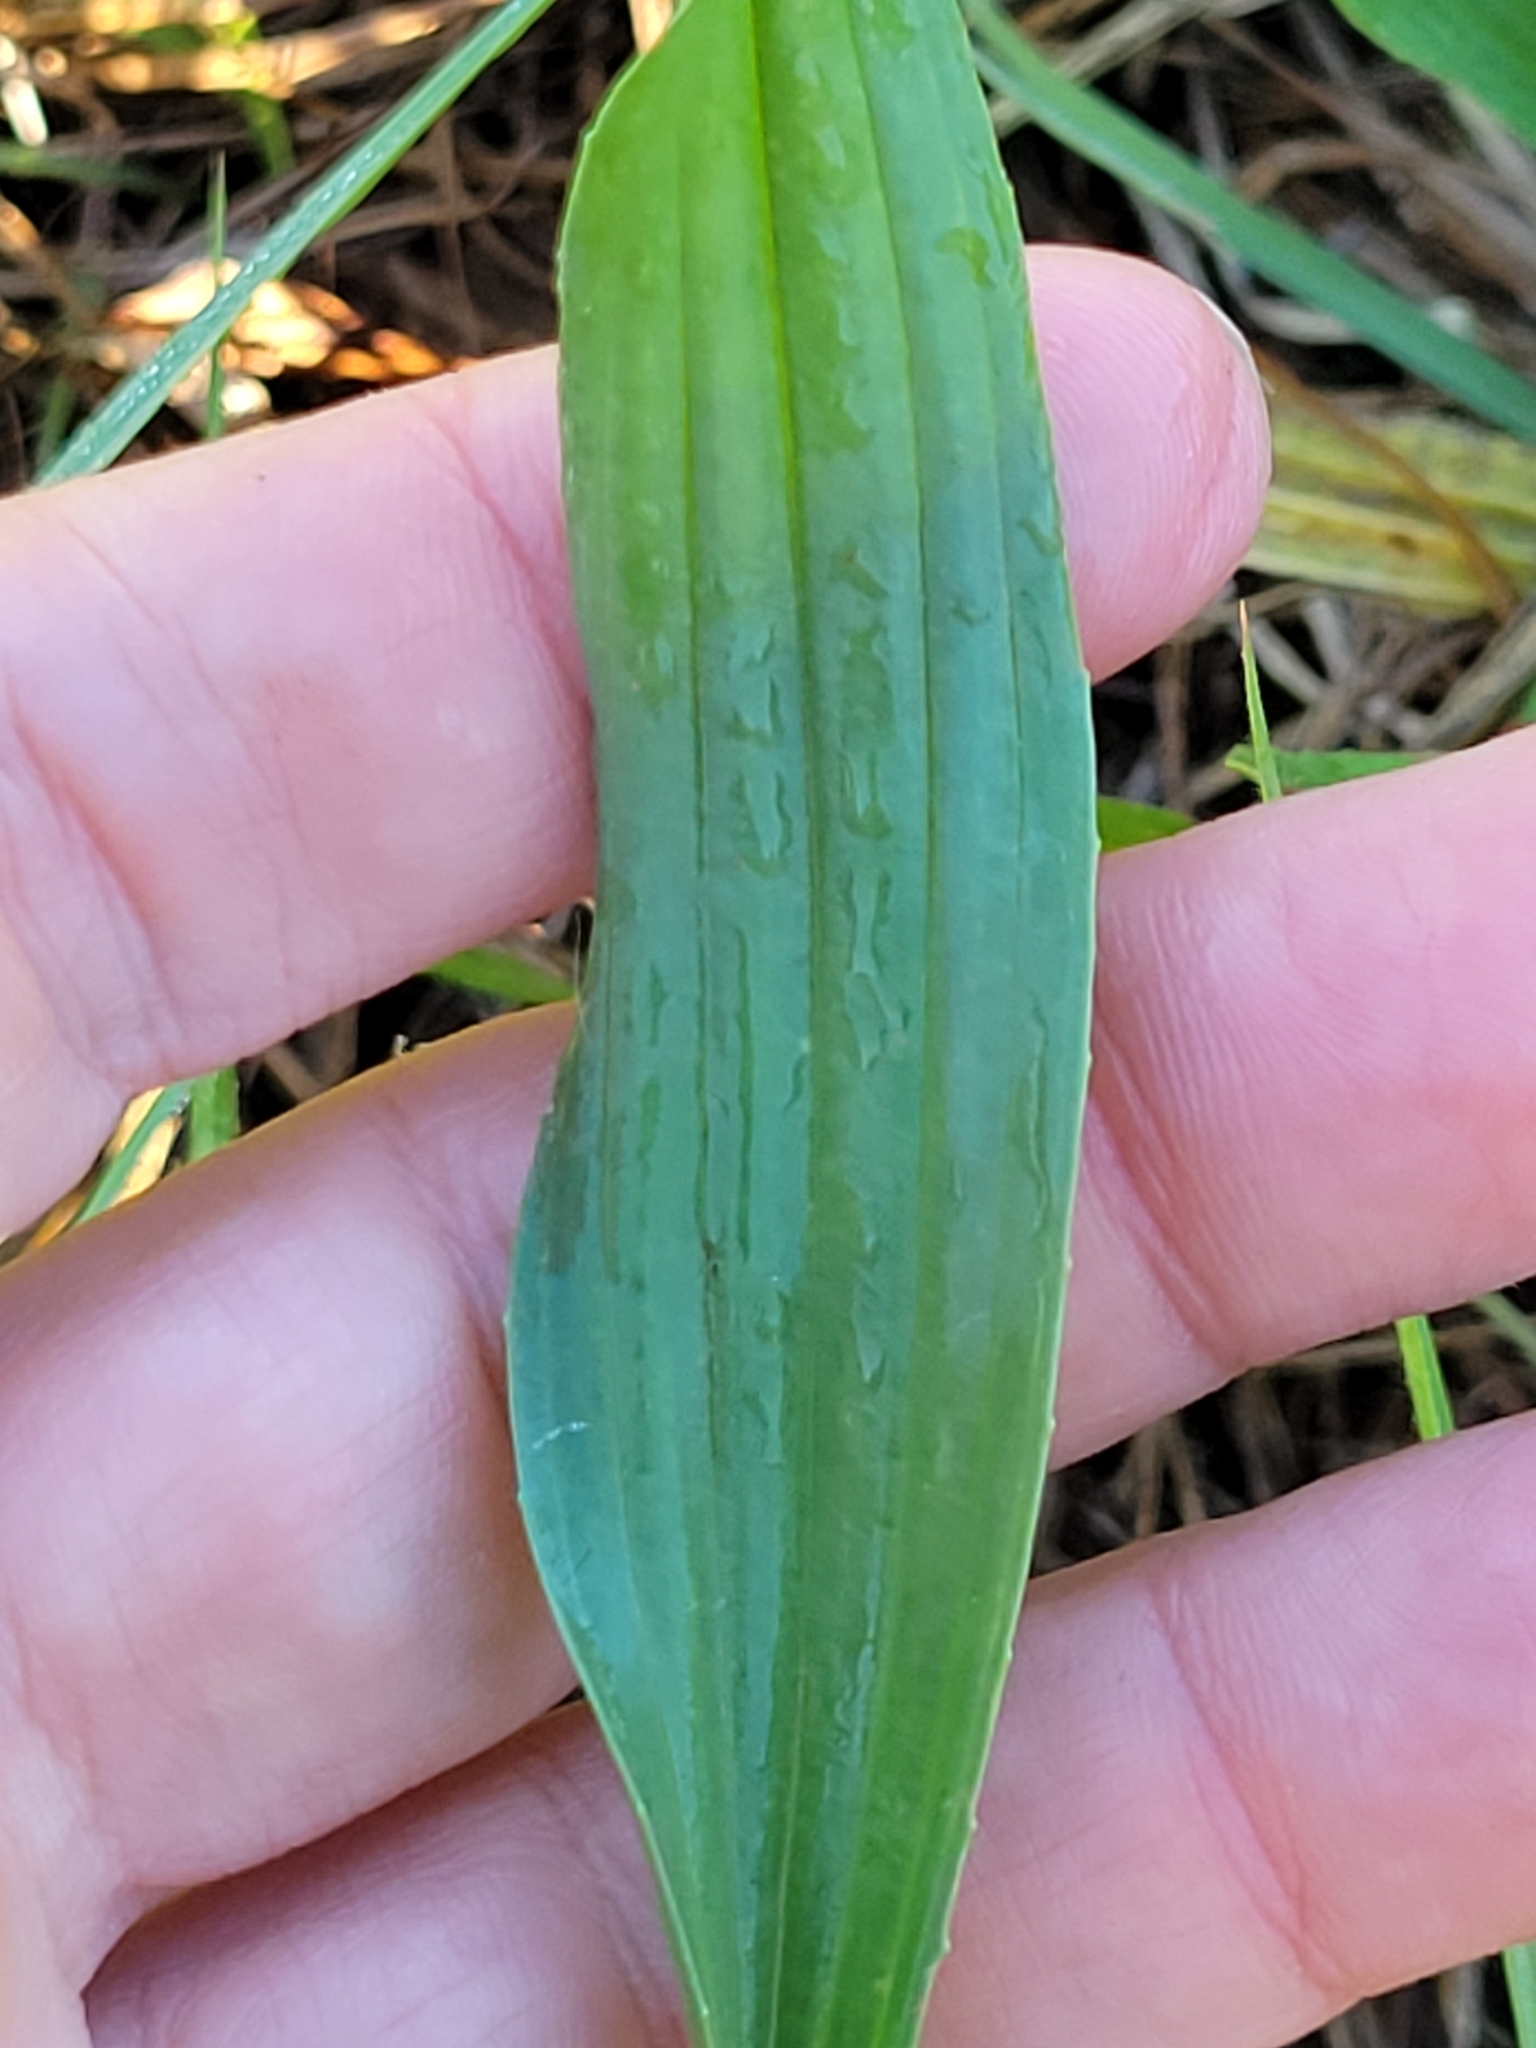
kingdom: Plantae
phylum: Tracheophyta
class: Magnoliopsida
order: Lamiales
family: Plantaginaceae
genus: Plantago
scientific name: Plantago lanceolata
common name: Ribwort plantain
